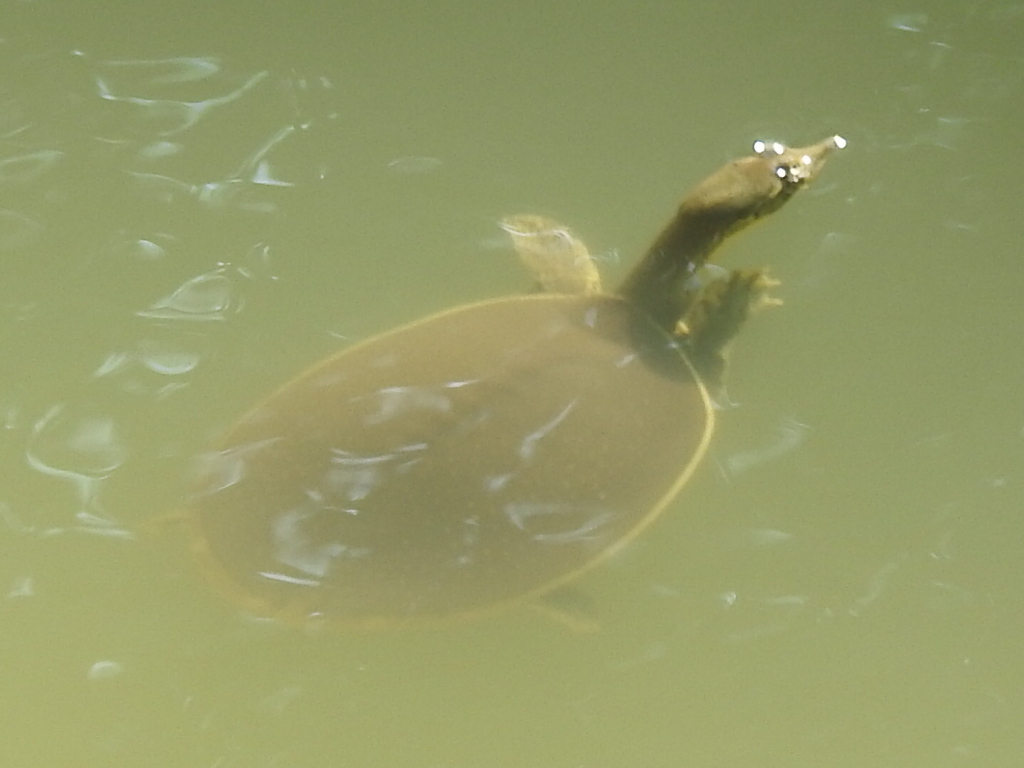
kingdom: Animalia
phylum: Chordata
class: Testudines
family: Trionychidae
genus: Apalone
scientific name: Apalone spinifera
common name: Spiny softshell turtle
